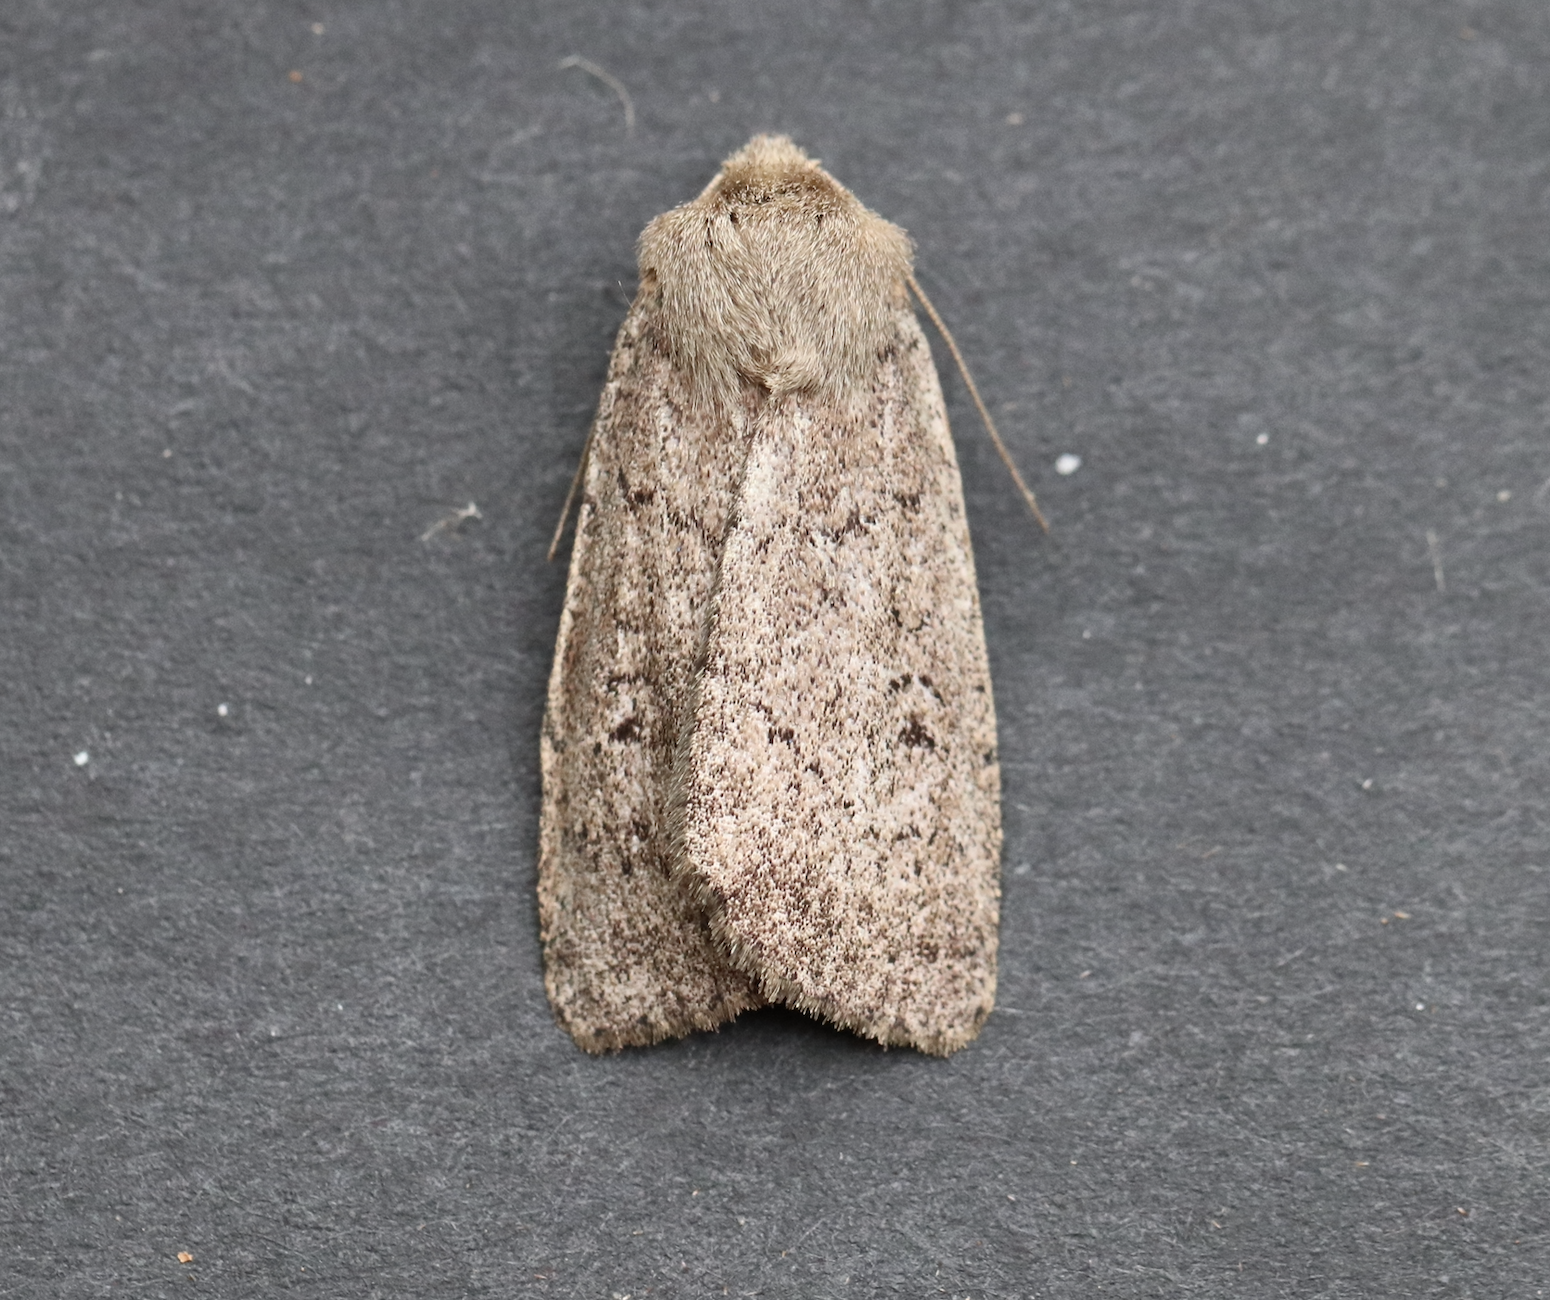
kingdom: Animalia
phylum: Arthropoda
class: Insecta
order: Lepidoptera
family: Noctuidae
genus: Graphiphora
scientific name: Graphiphora augur
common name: Double dart
